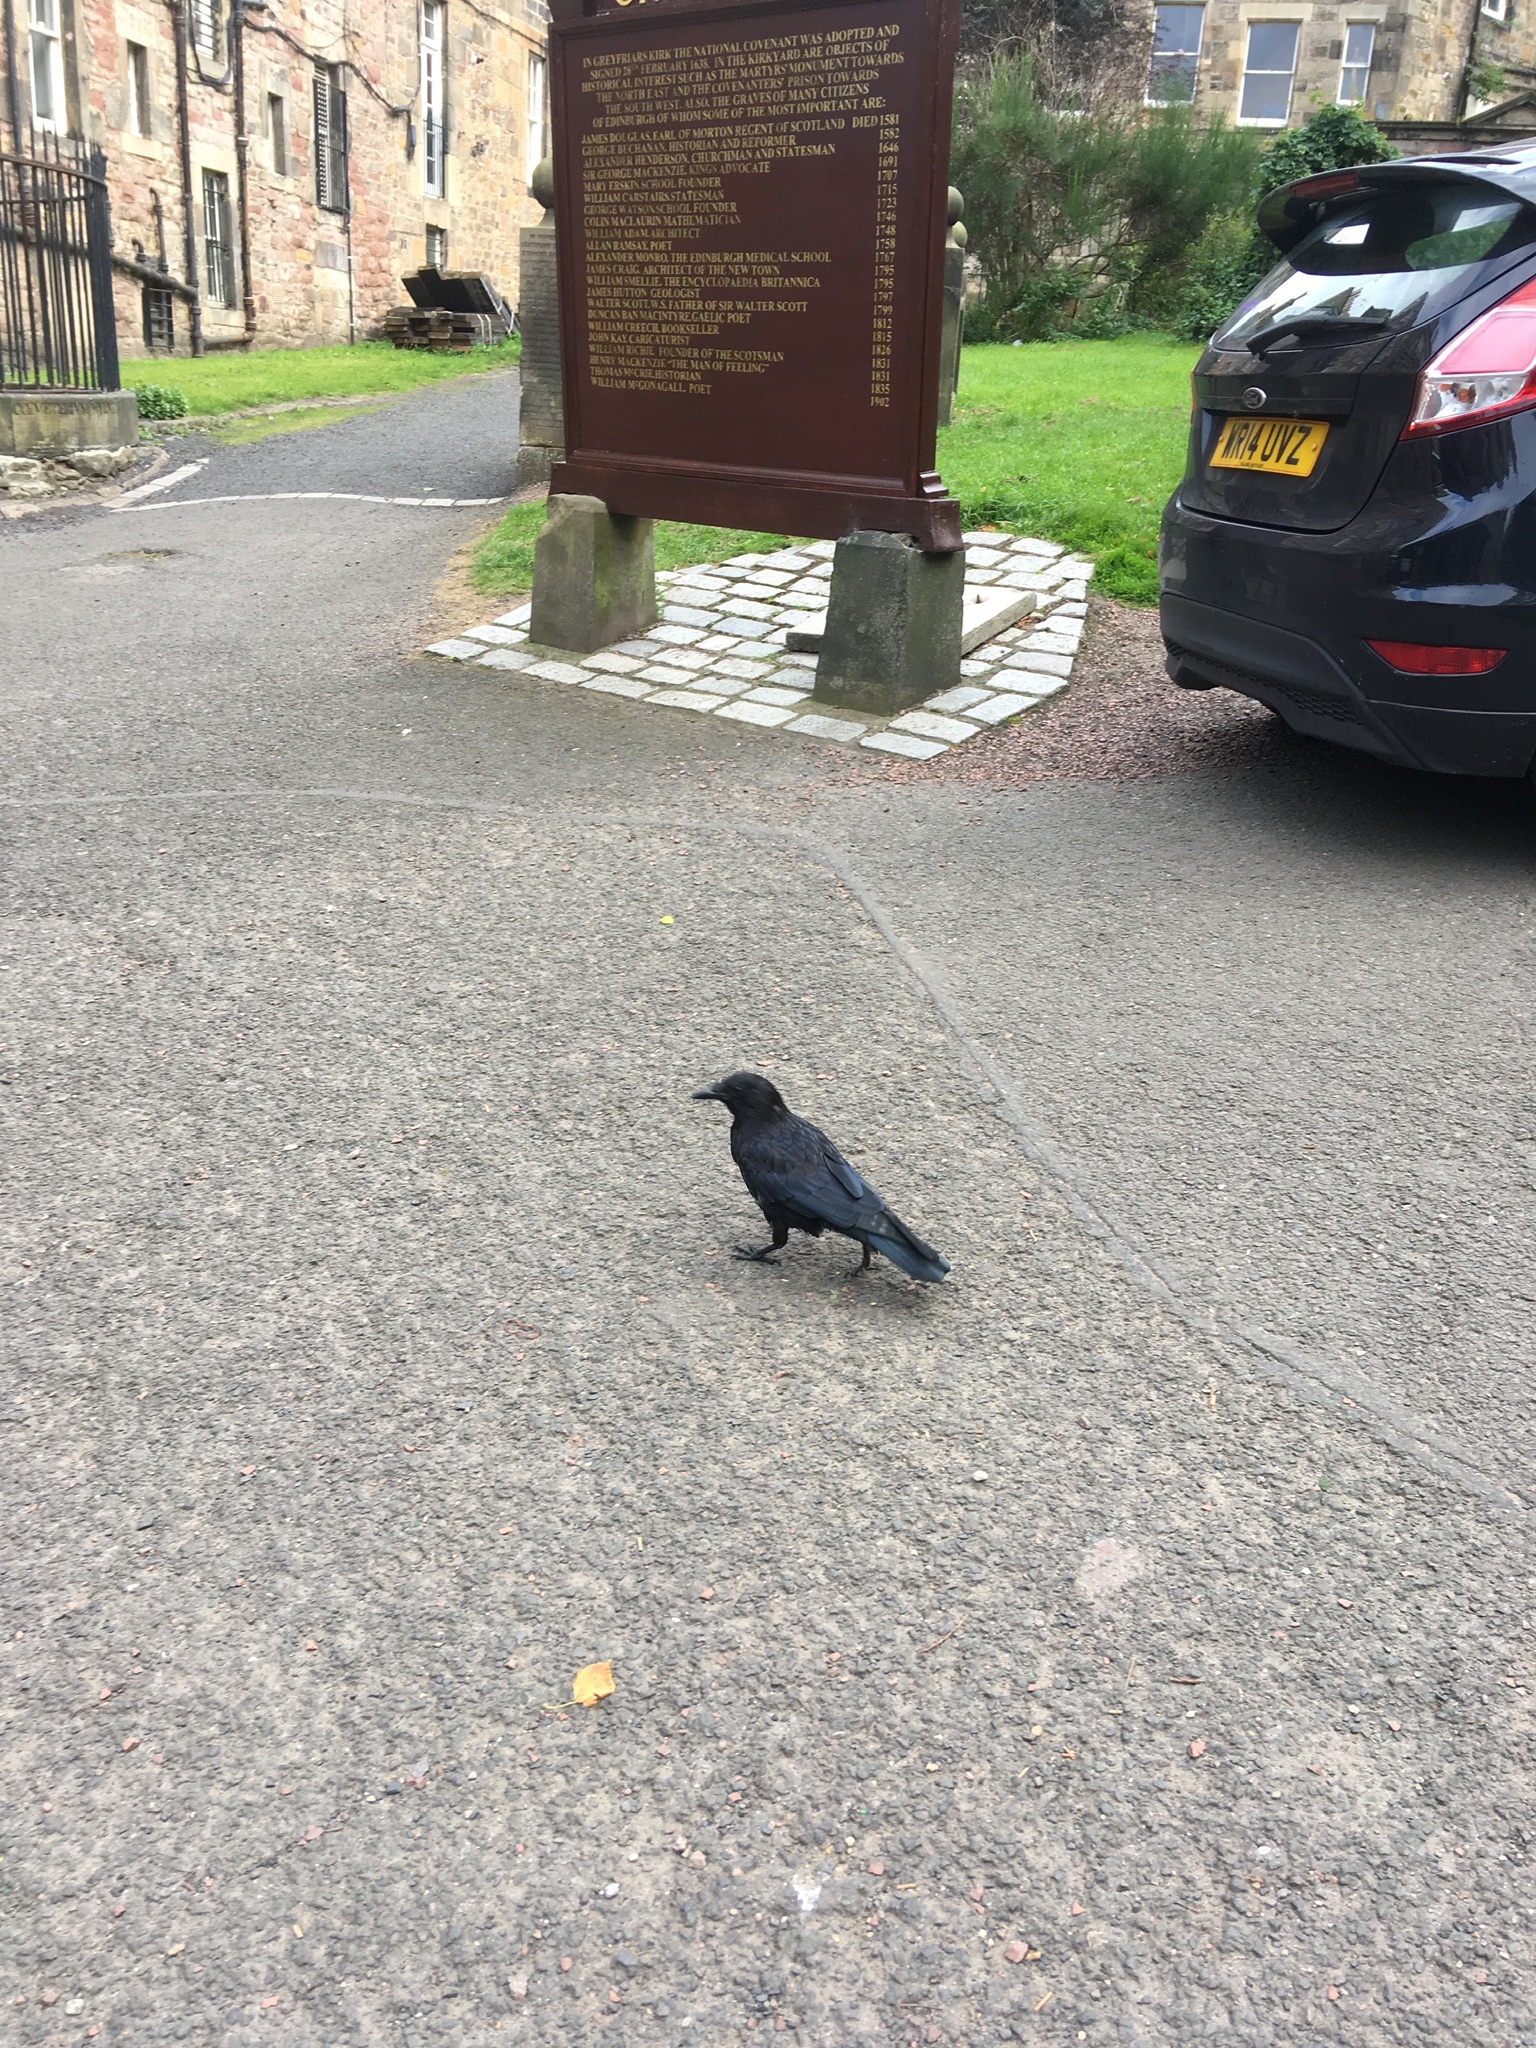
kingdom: Animalia
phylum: Chordata
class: Aves
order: Passeriformes
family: Corvidae
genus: Corvus
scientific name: Corvus corone
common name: Carrion crow
